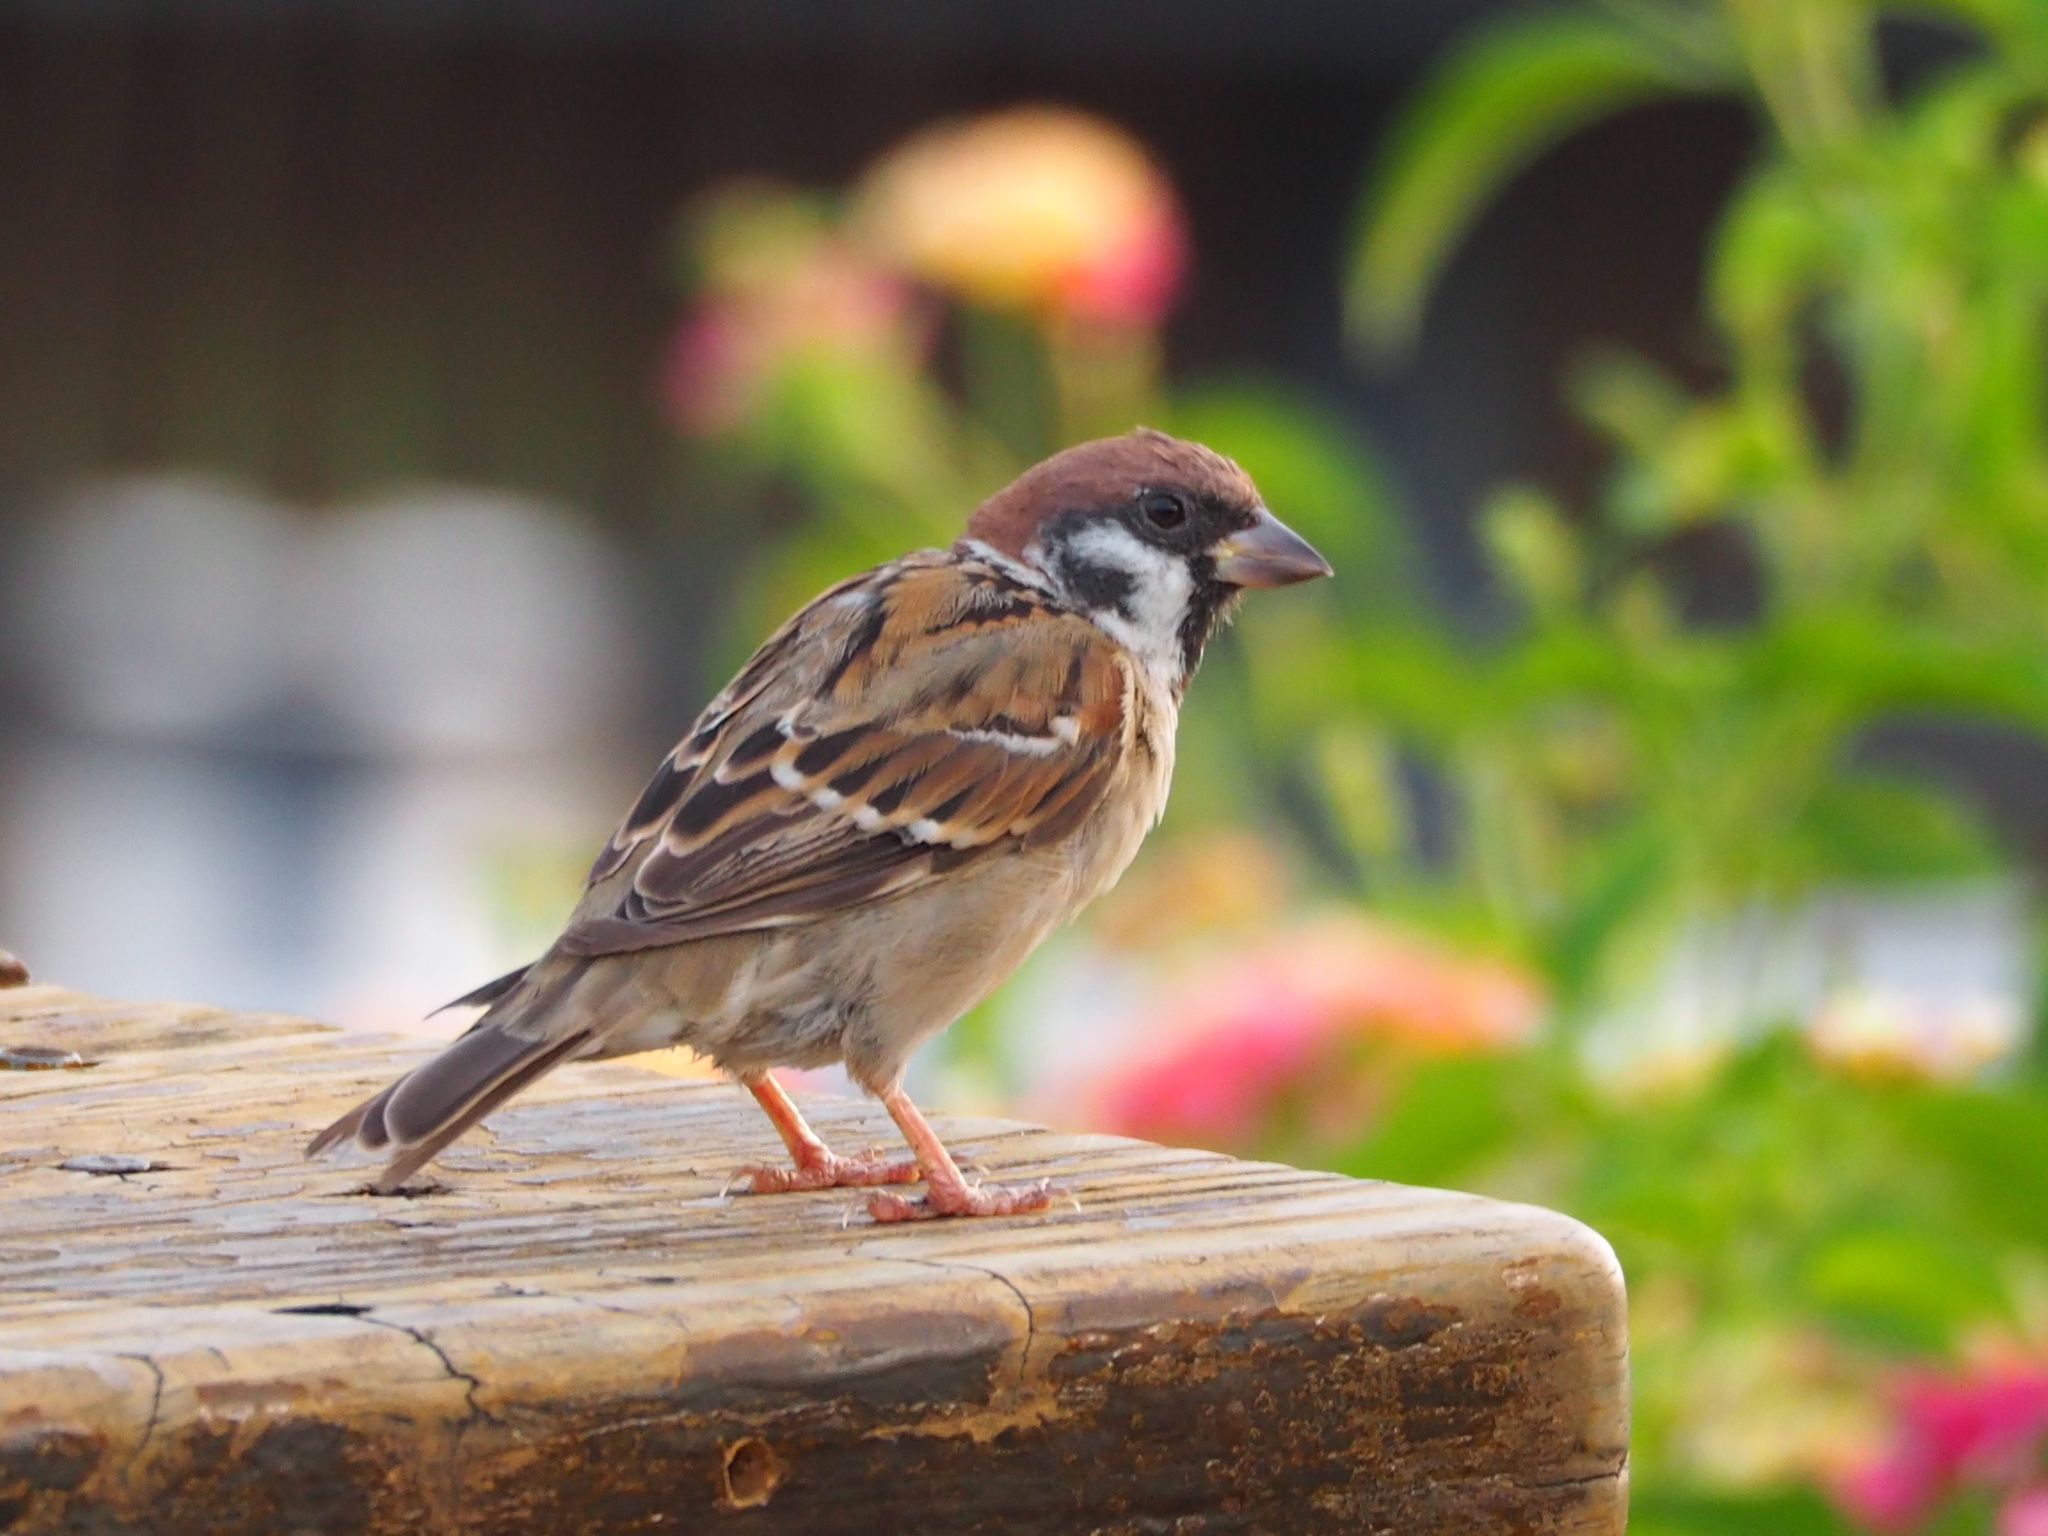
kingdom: Animalia
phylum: Chordata
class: Aves
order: Passeriformes
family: Passeridae
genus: Passer
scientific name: Passer montanus
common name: Eurasian tree sparrow
